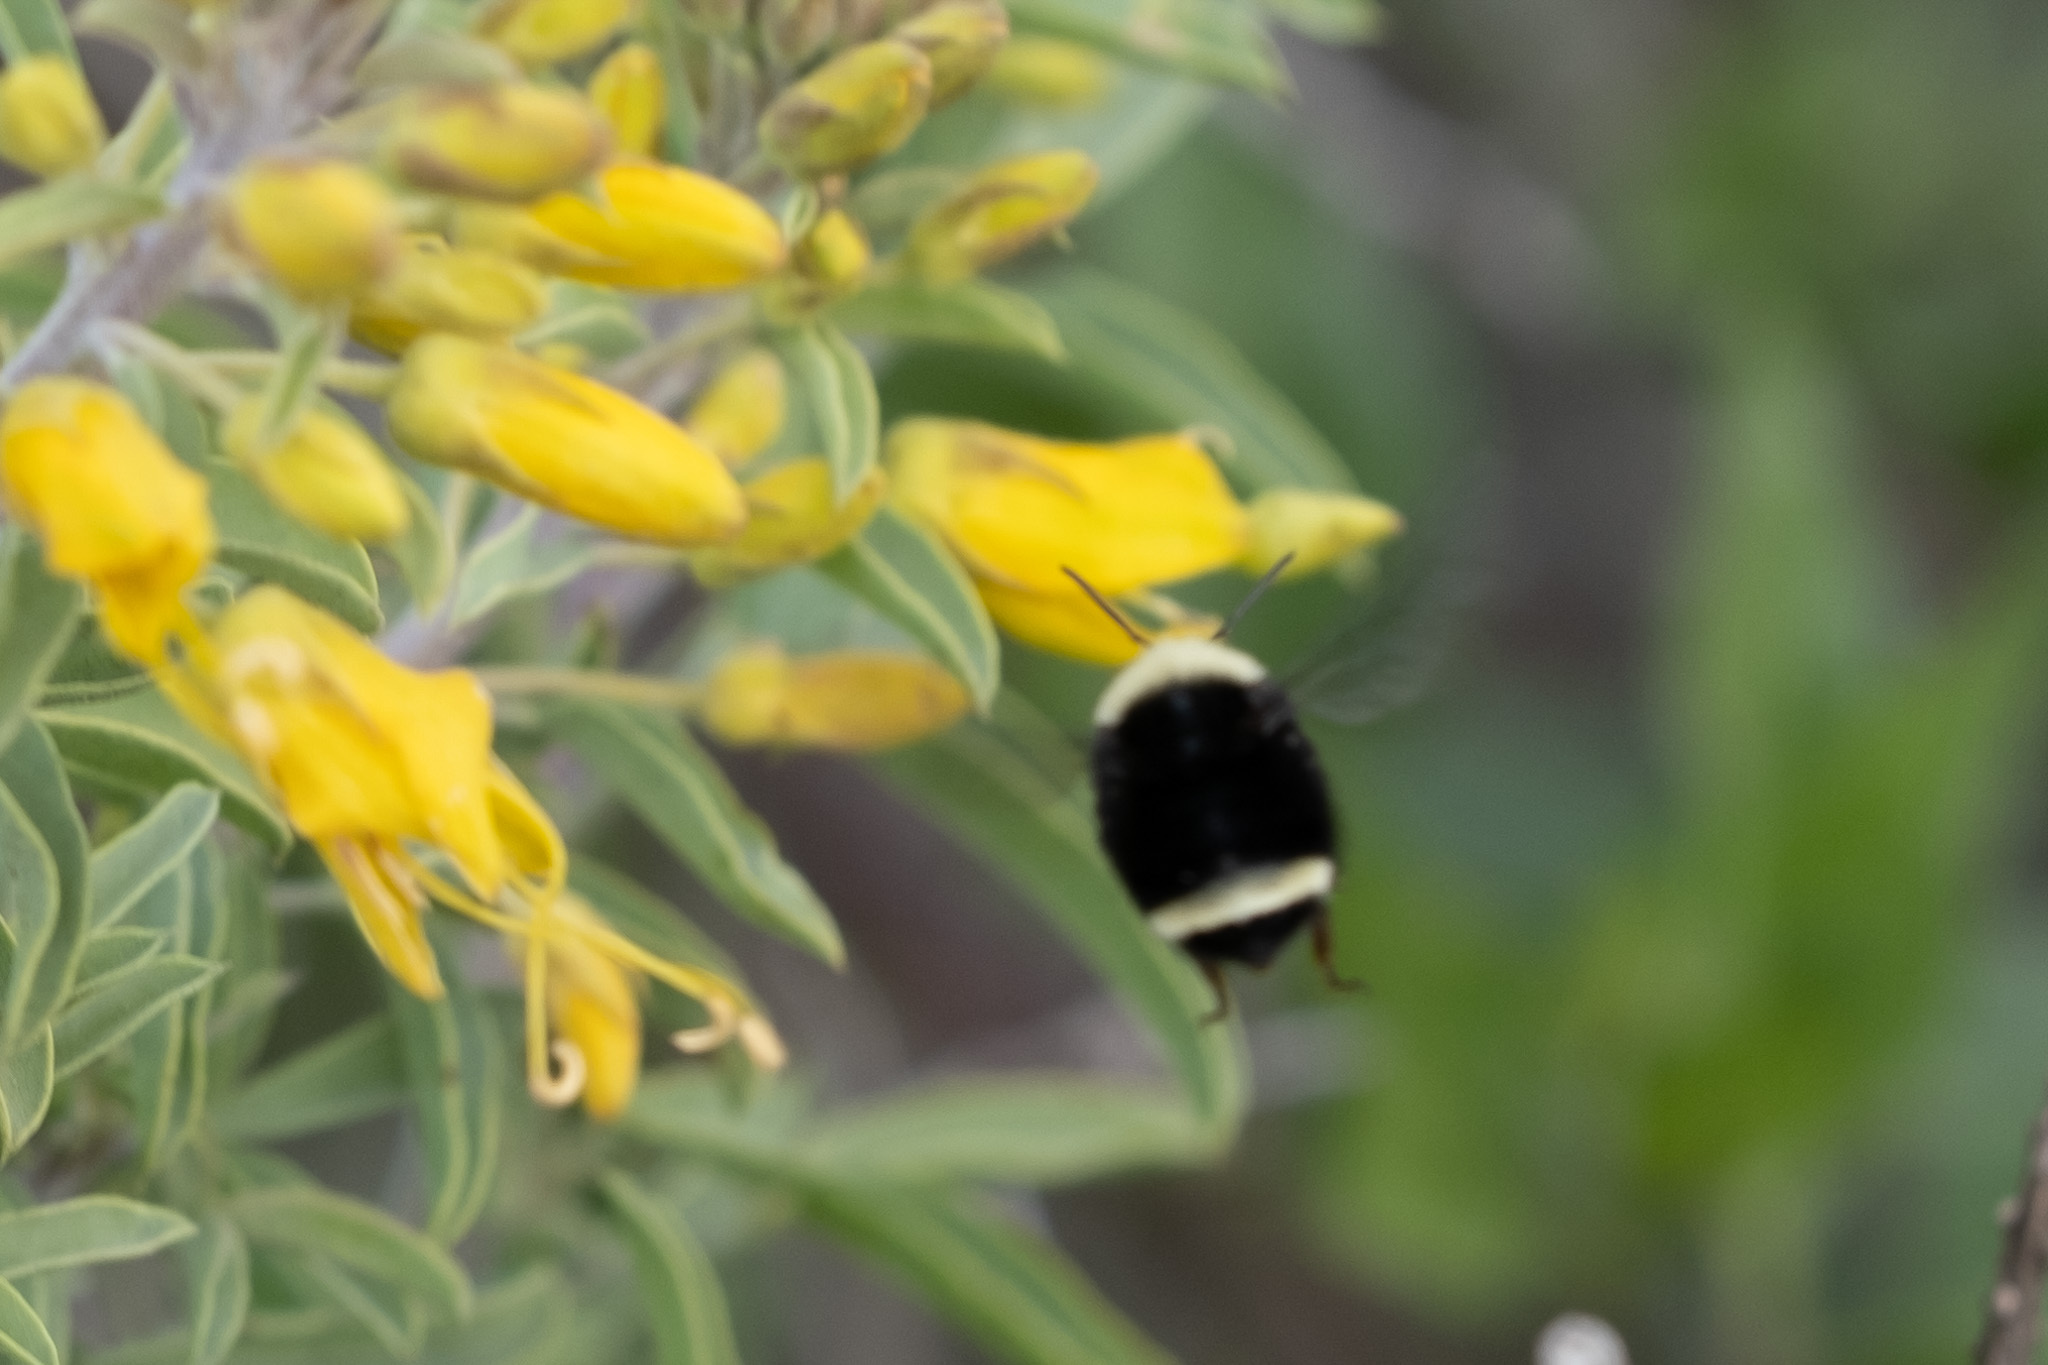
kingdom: Animalia
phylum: Arthropoda
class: Insecta
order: Hymenoptera
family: Apidae
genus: Bombus
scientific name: Bombus vosnesenskii
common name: Vosnesensky bumble bee
